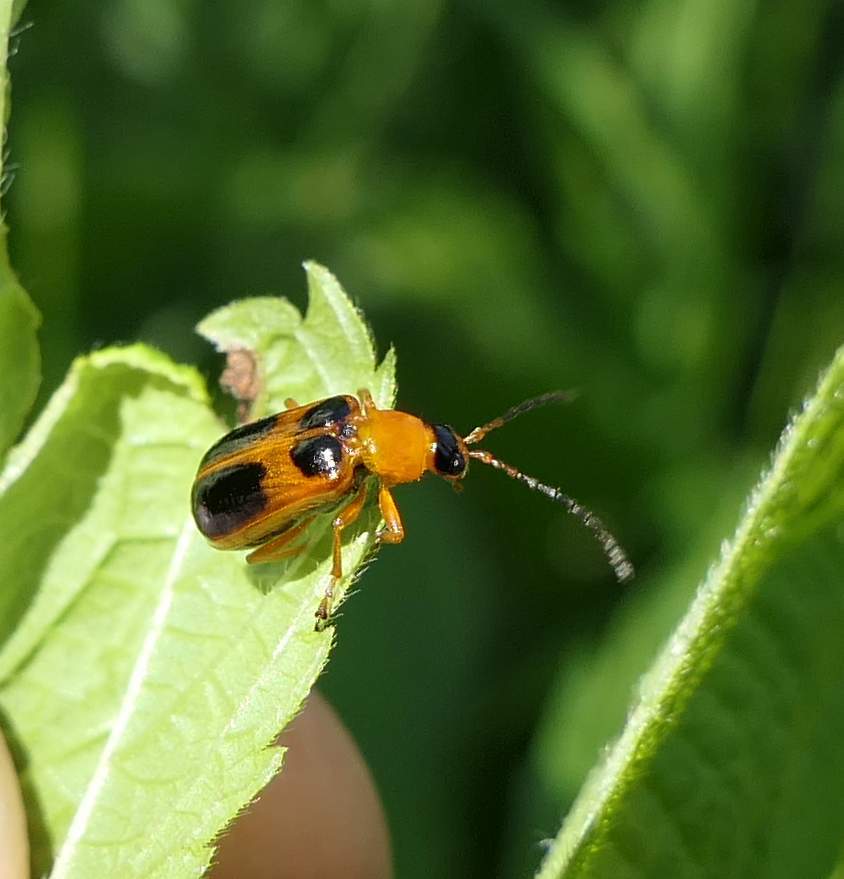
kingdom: Animalia
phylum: Arthropoda
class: Insecta
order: Coleoptera
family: Chrysomelidae
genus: Phyllobrotica
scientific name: Phyllobrotica decorata
